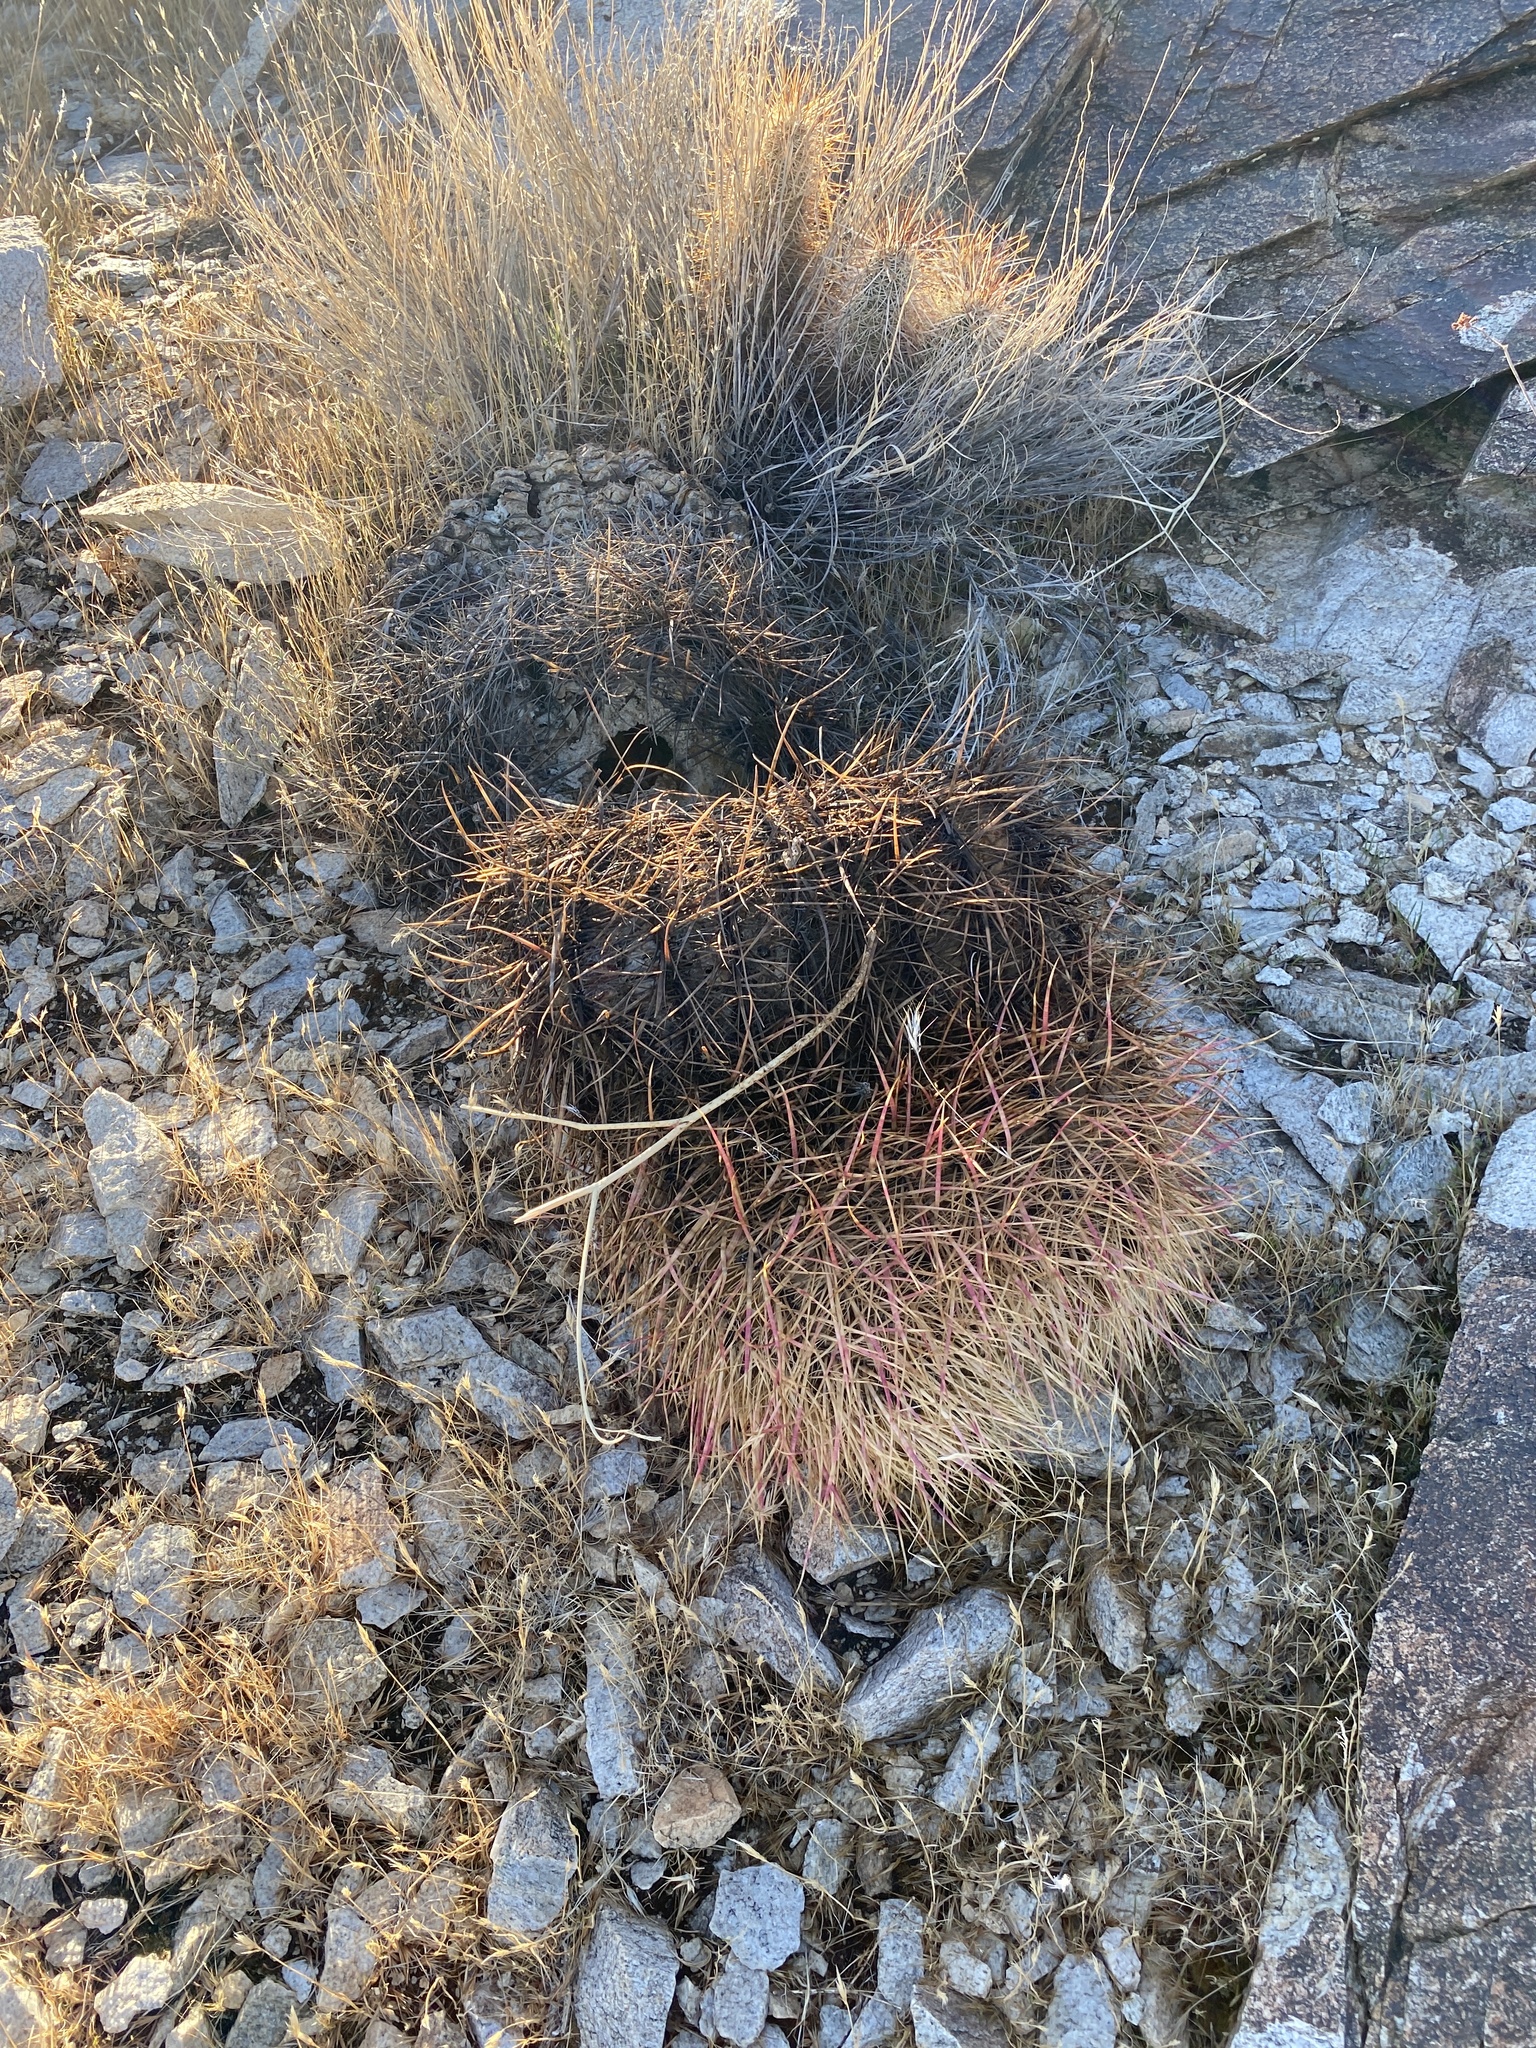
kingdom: Plantae
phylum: Tracheophyta
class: Magnoliopsida
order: Caryophyllales
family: Cactaceae
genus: Ferocactus
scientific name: Ferocactus cylindraceus
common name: California barrel cactus
